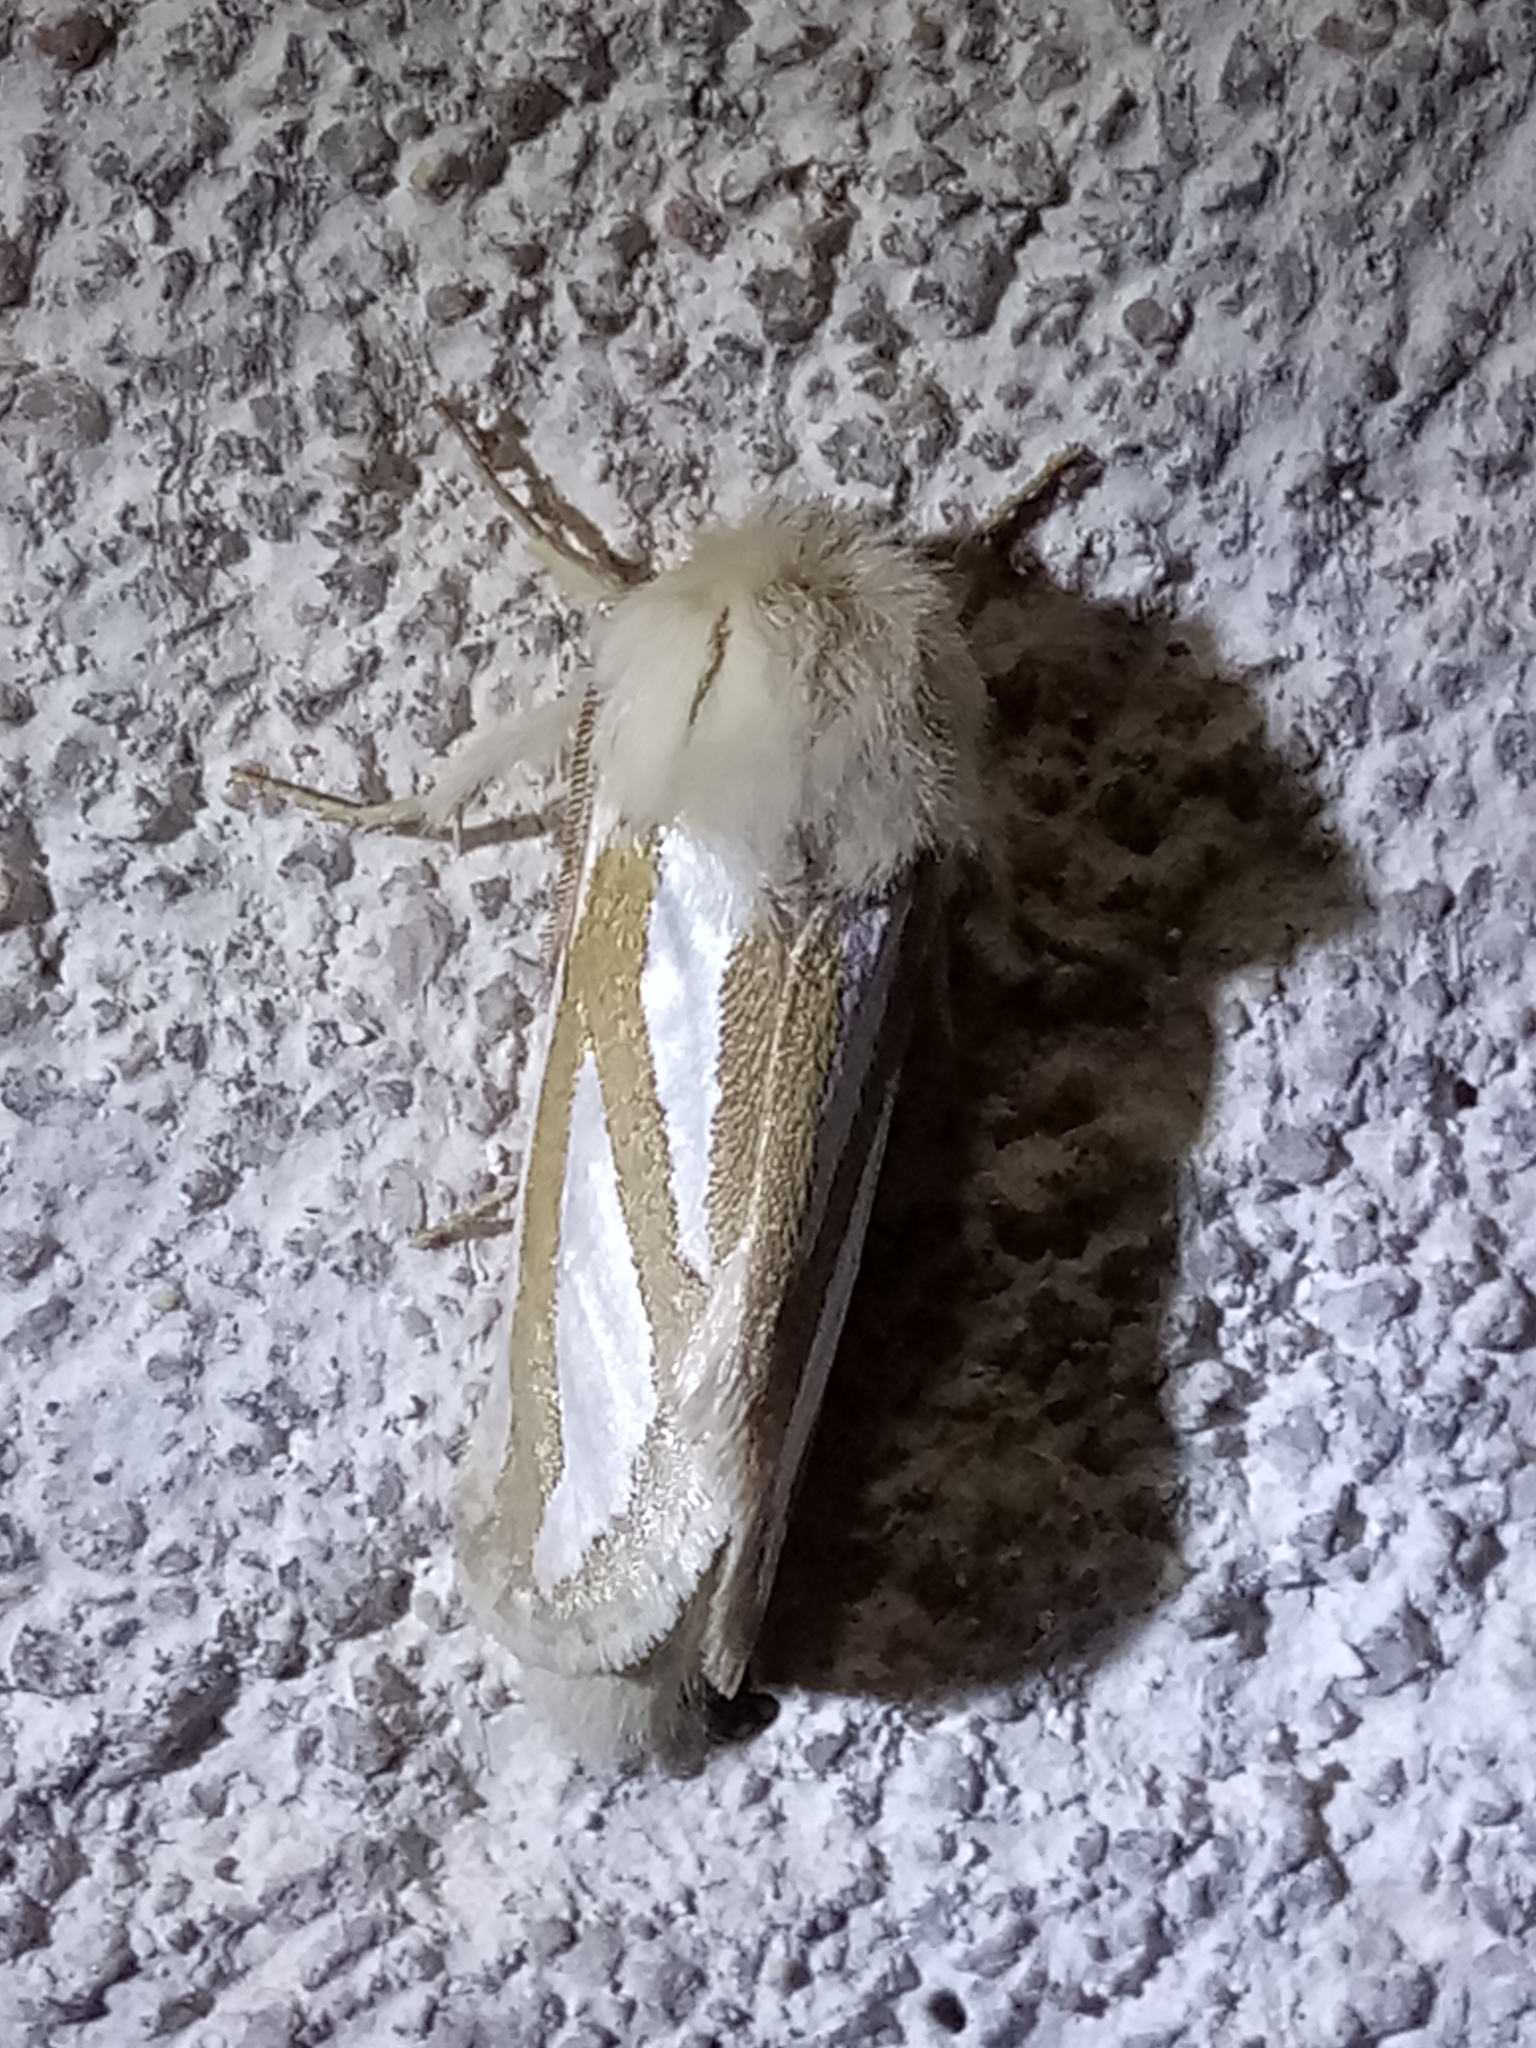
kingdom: Animalia
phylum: Arthropoda
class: Insecta
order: Lepidoptera
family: Cossidae
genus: Mormogystia
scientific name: Mormogystia reibellii
